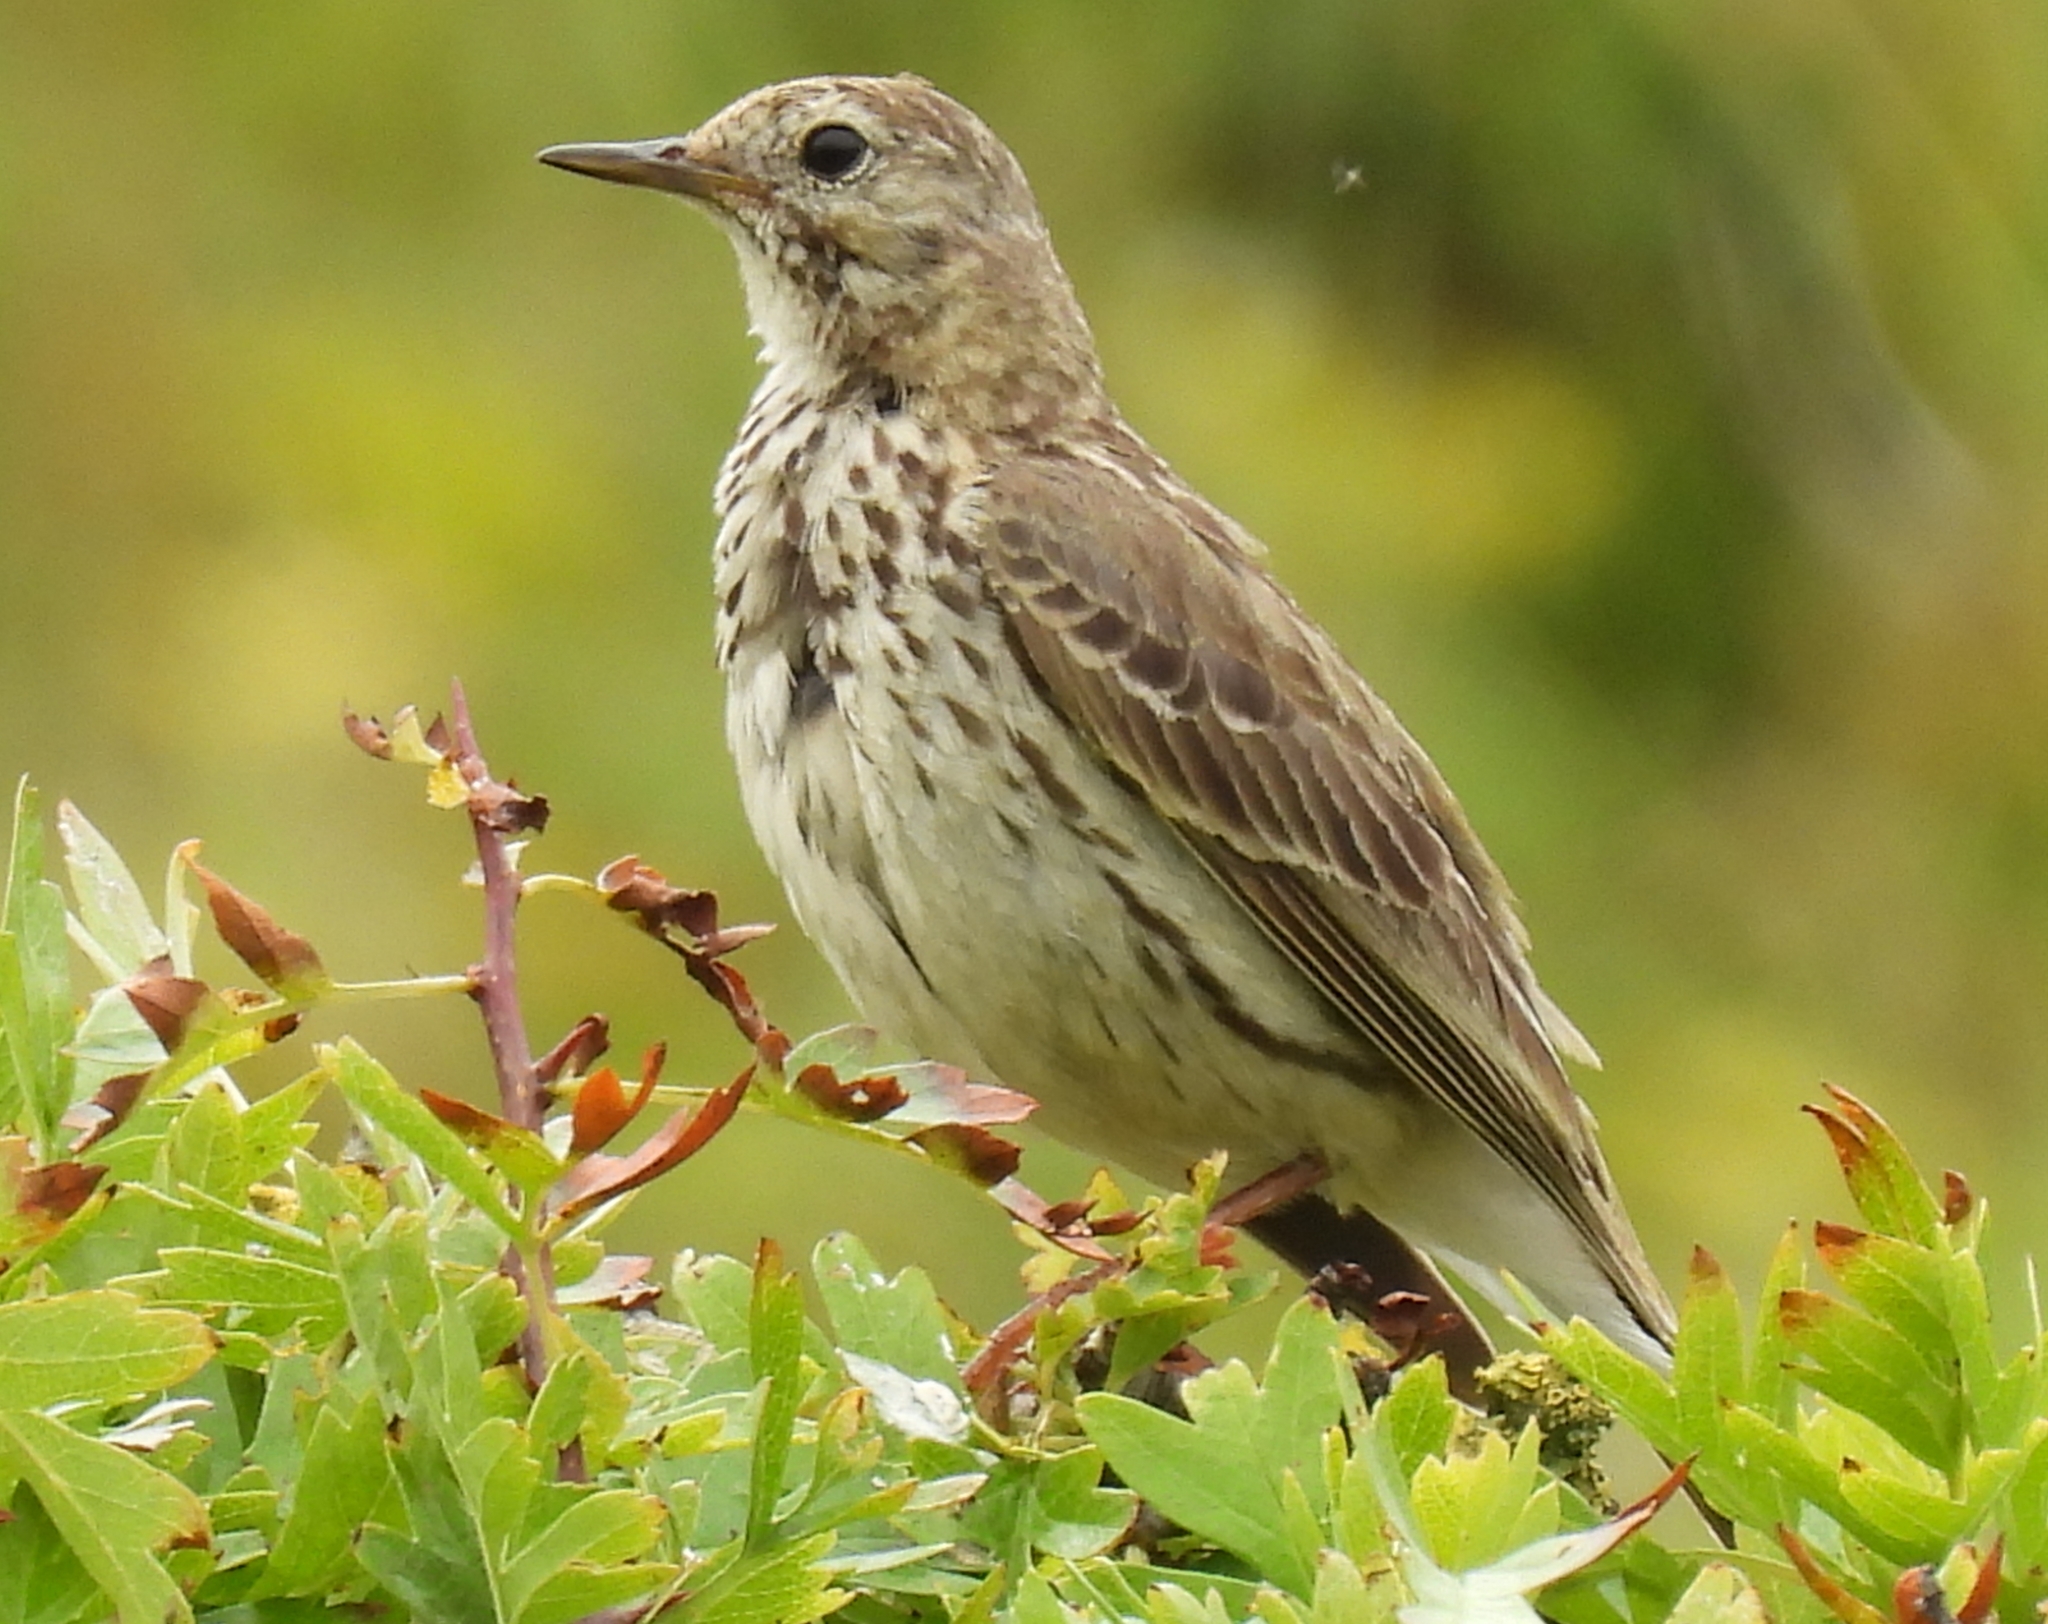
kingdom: Animalia
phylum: Chordata
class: Aves
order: Passeriformes
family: Motacillidae
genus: Anthus
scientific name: Anthus pratensis
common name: Meadow pipit
